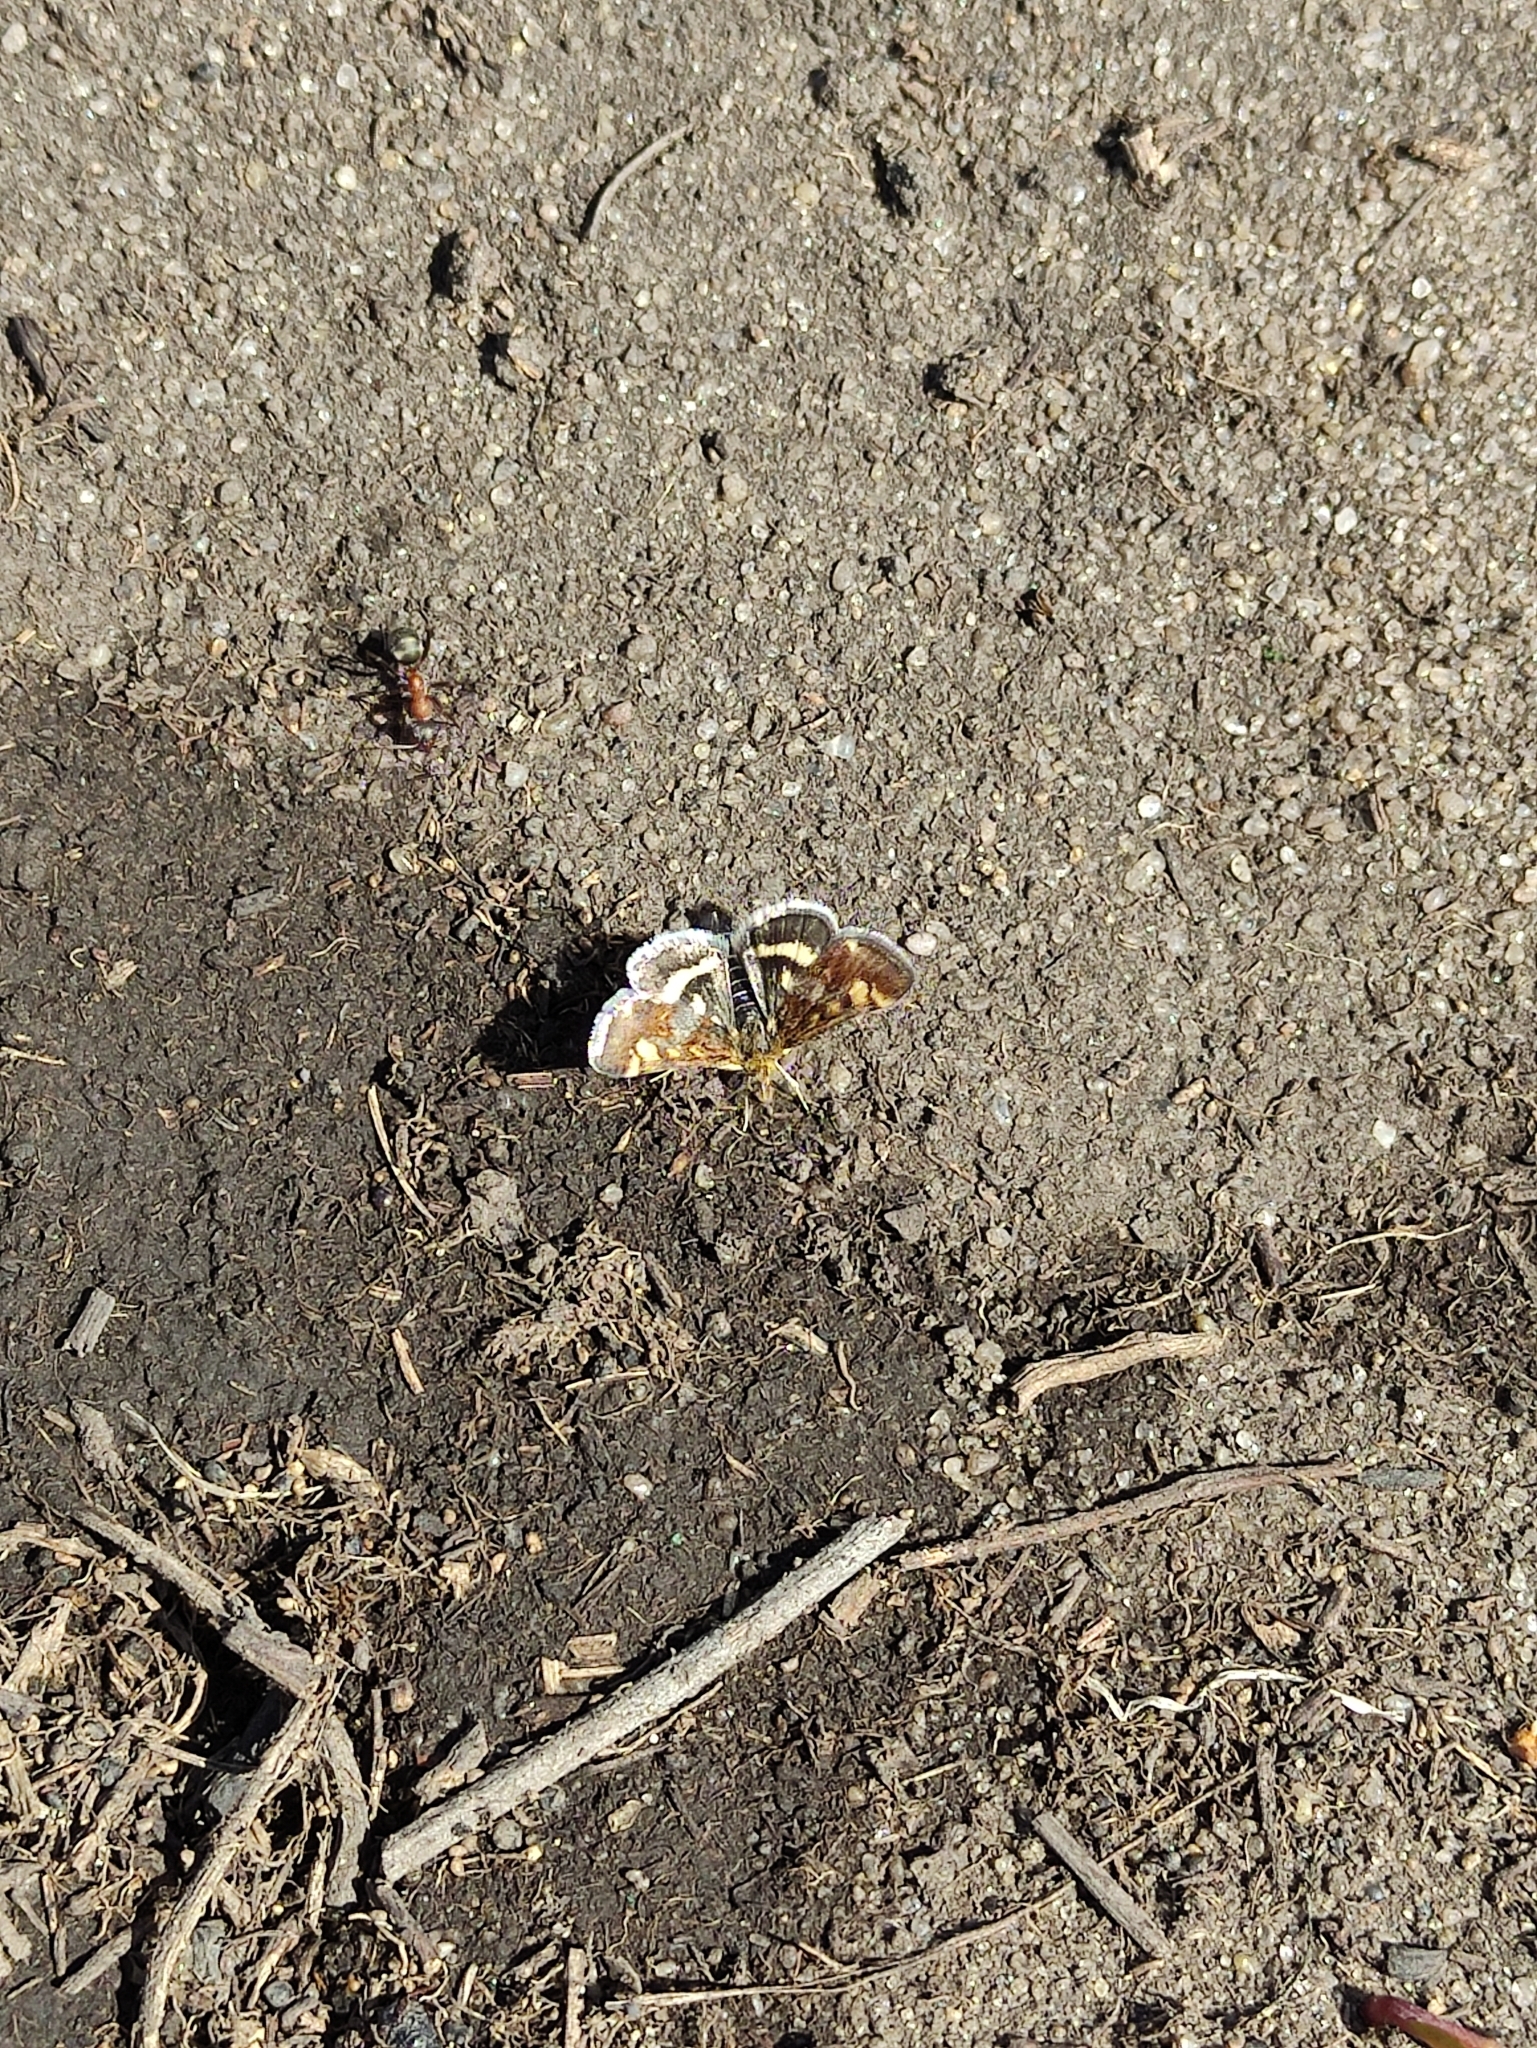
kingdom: Animalia
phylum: Arthropoda
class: Insecta
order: Lepidoptera
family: Crambidae
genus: Pyrausta
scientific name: Pyrausta porphyralis
